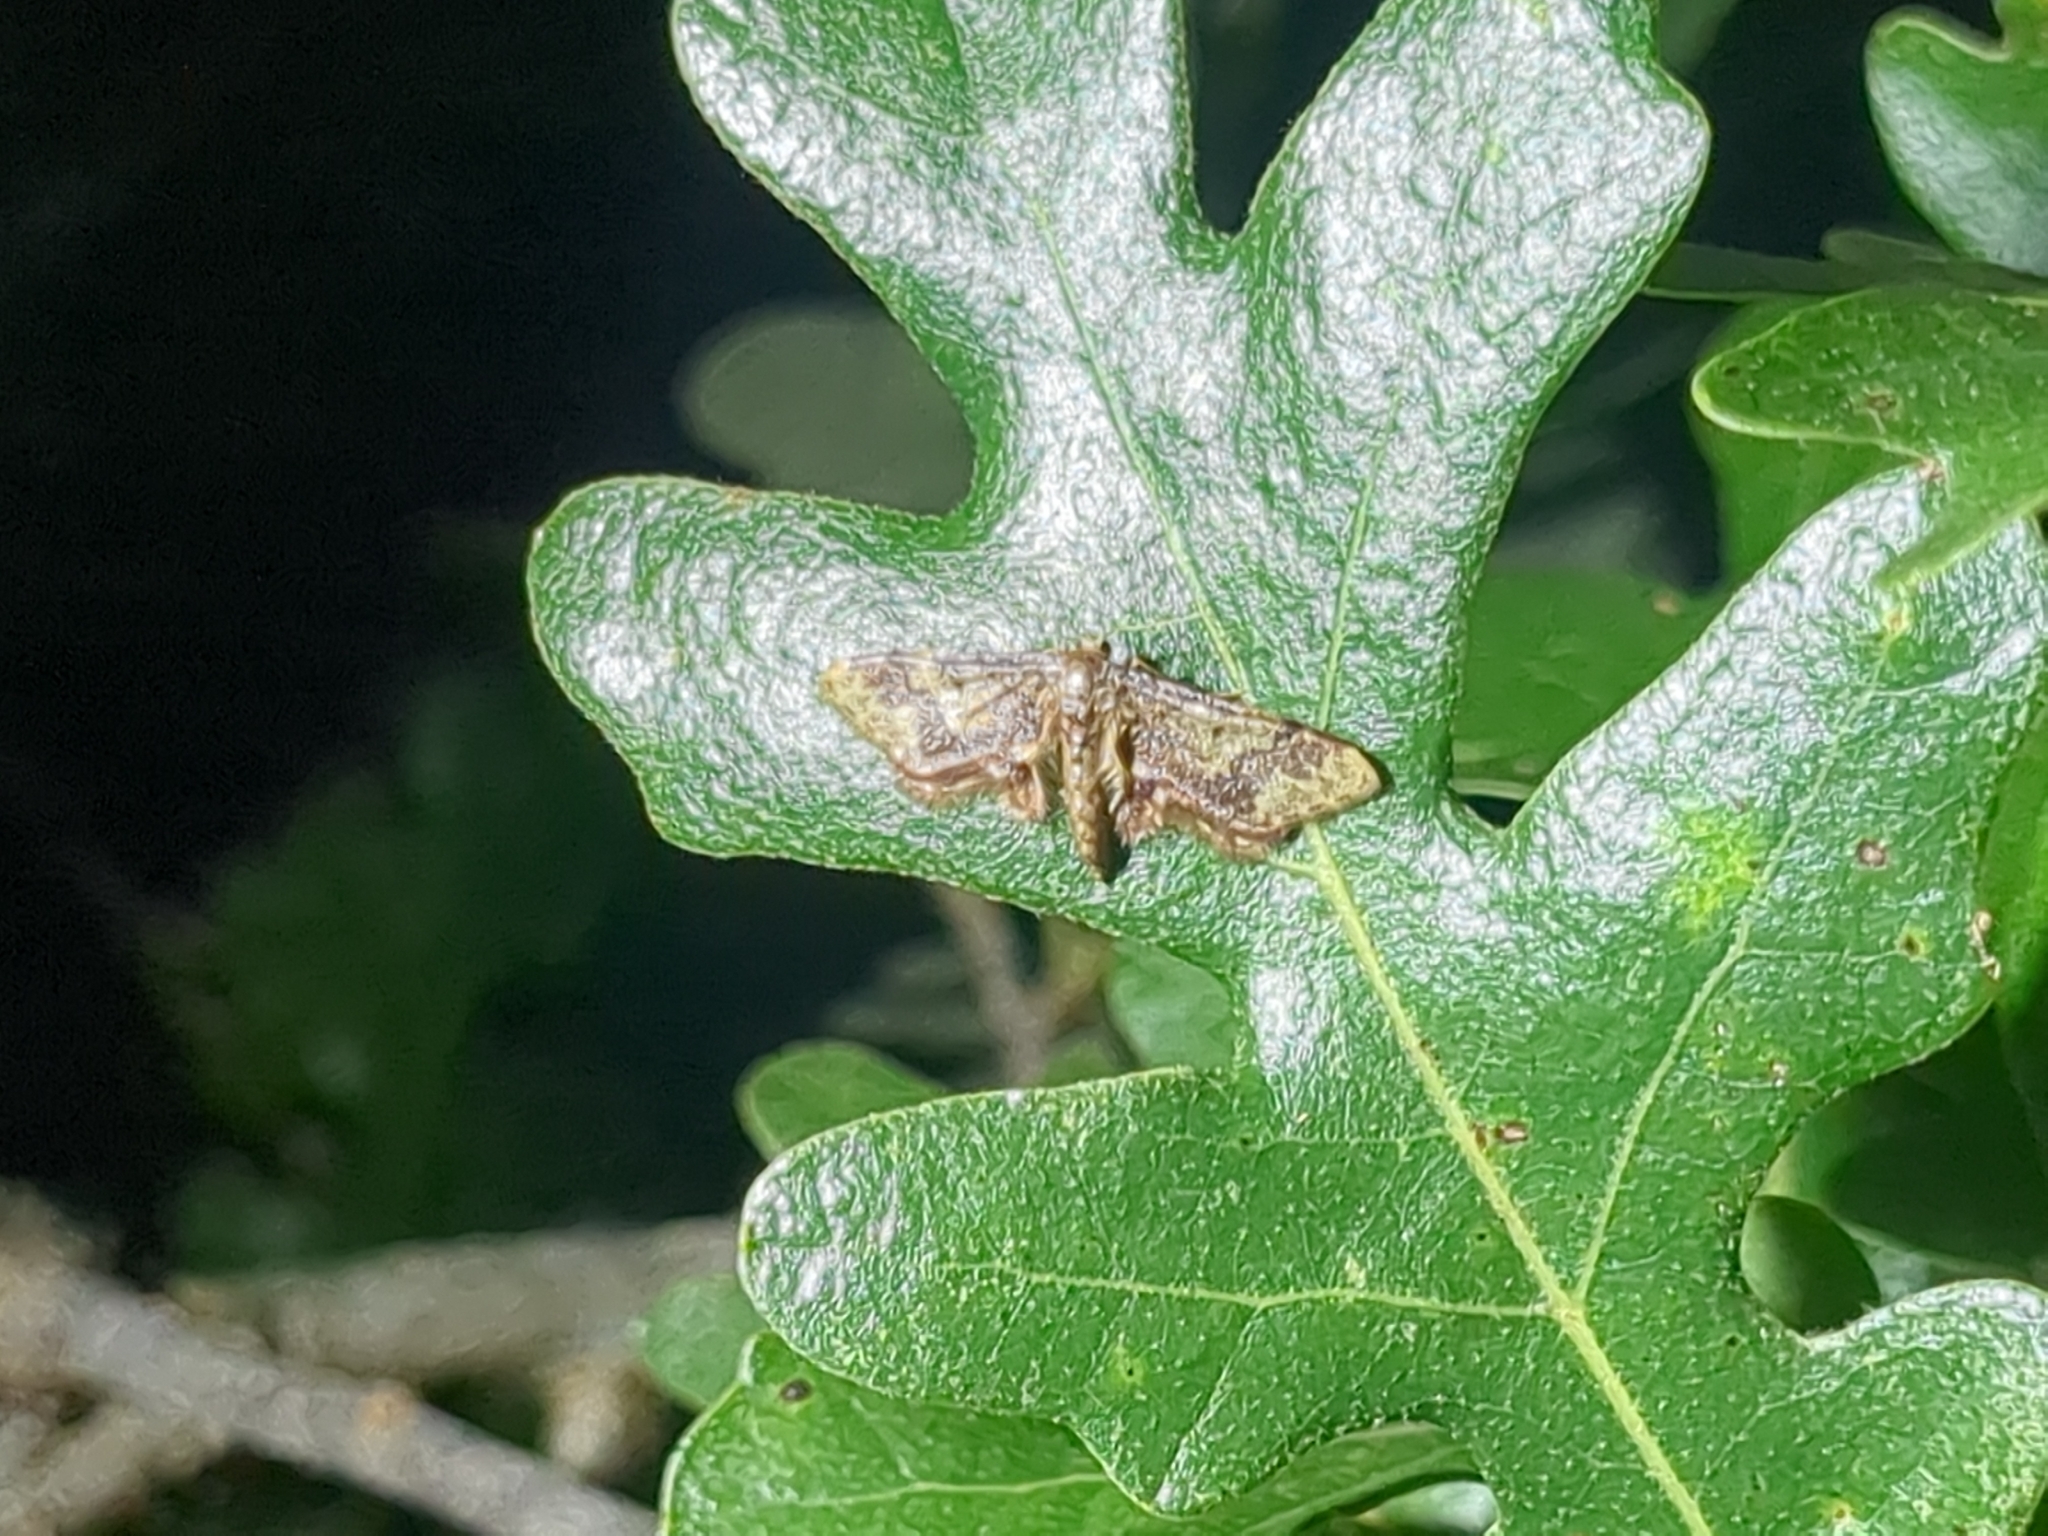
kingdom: Animalia
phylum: Arthropoda
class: Insecta
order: Lepidoptera
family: Geometridae
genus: Idaea
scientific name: Idaea furciferata
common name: Notch-winged wave
